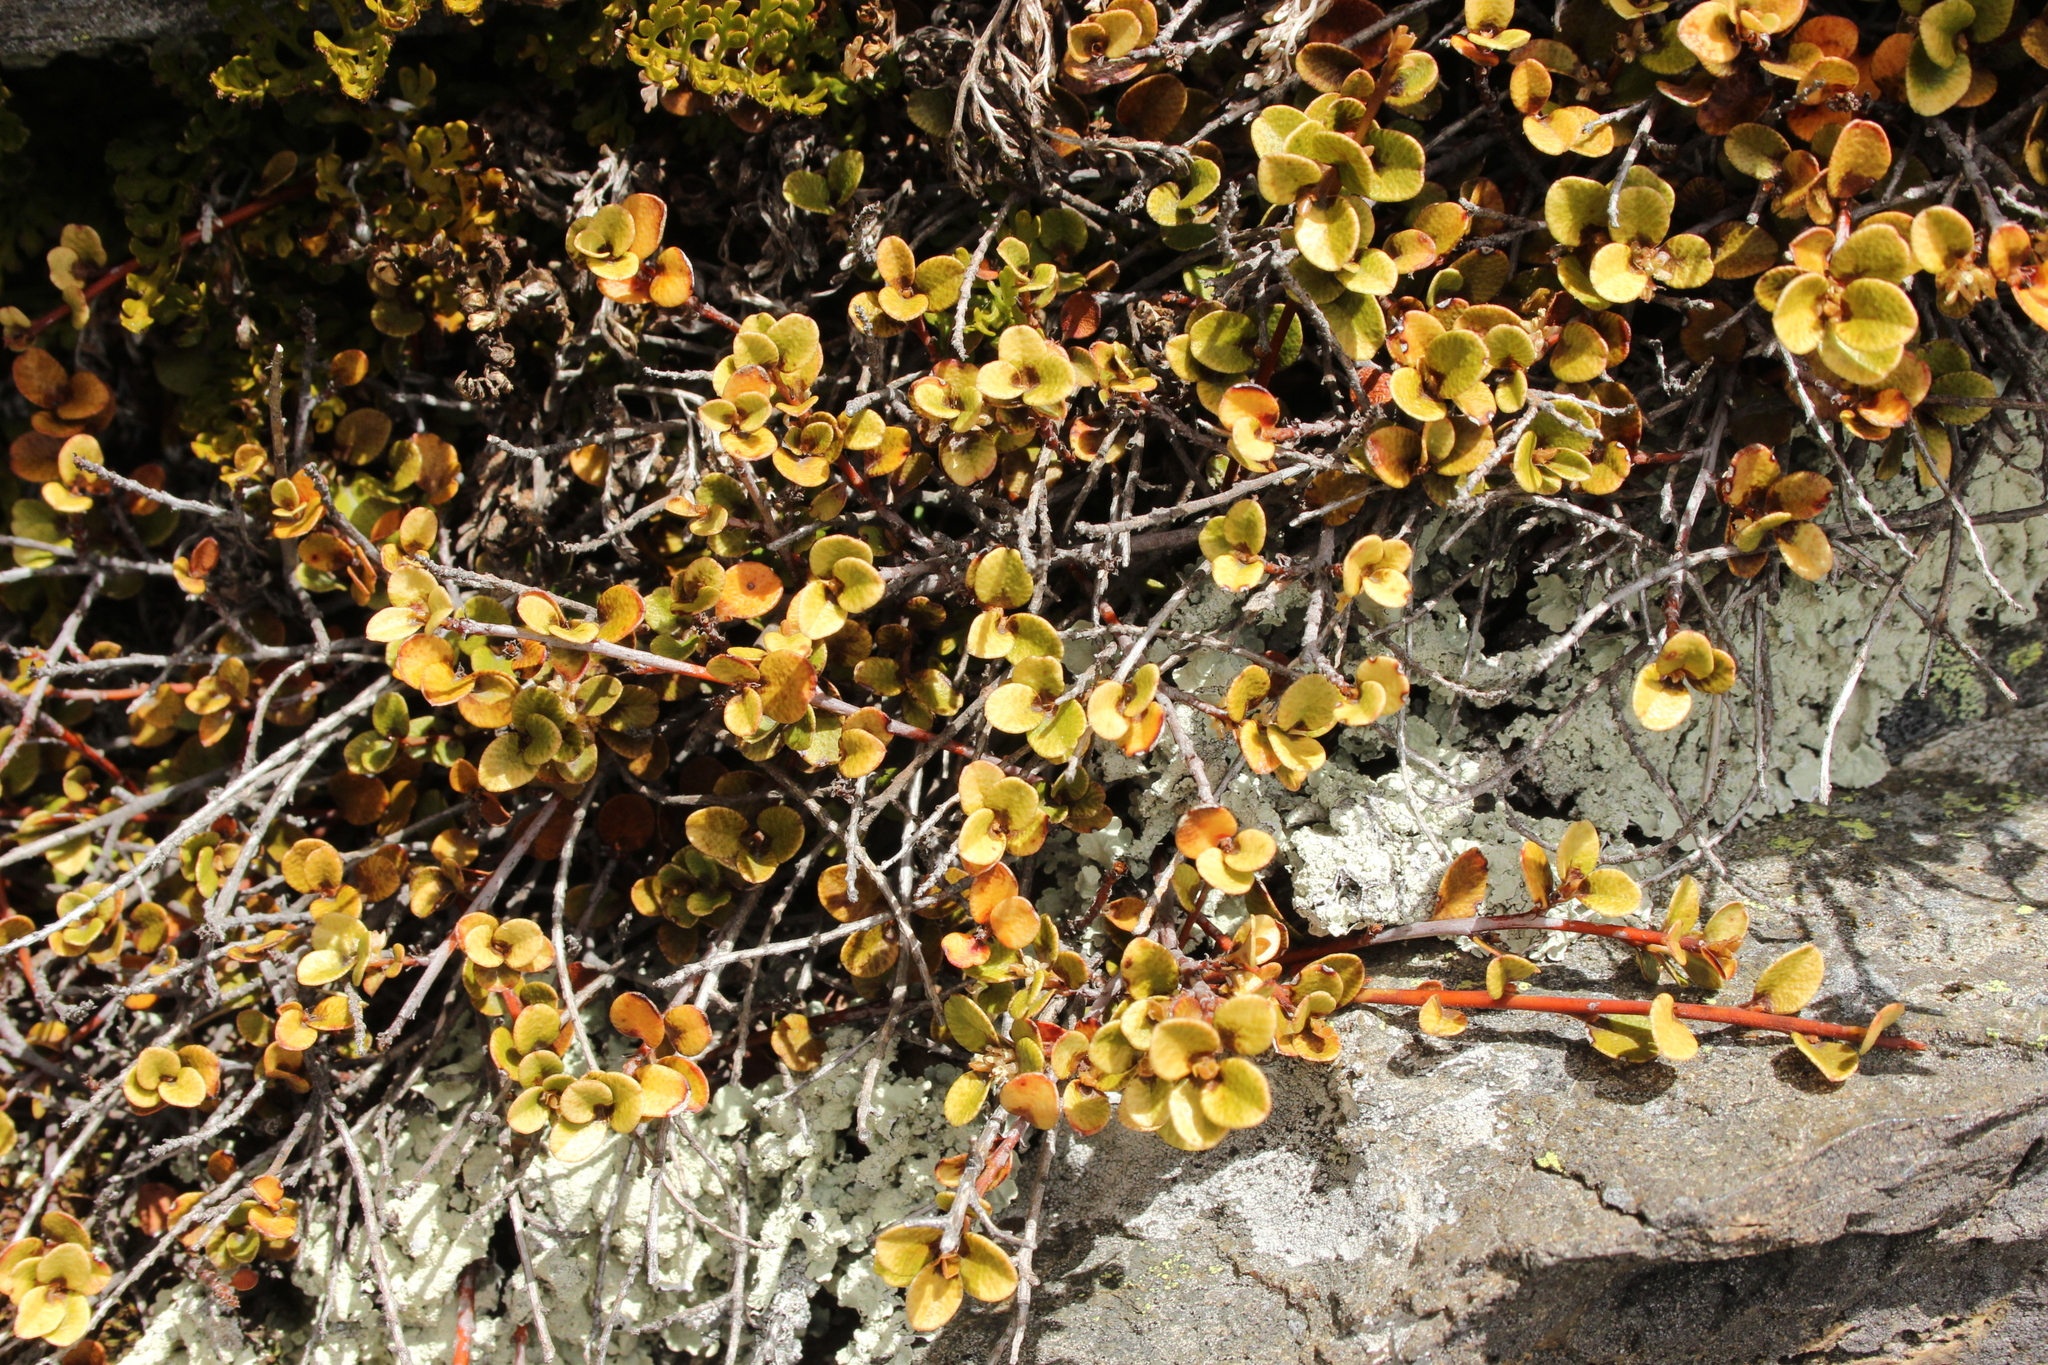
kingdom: Plantae
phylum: Tracheophyta
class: Magnoliopsida
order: Ericales
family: Primulaceae
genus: Myrsine
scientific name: Myrsine nummularia
